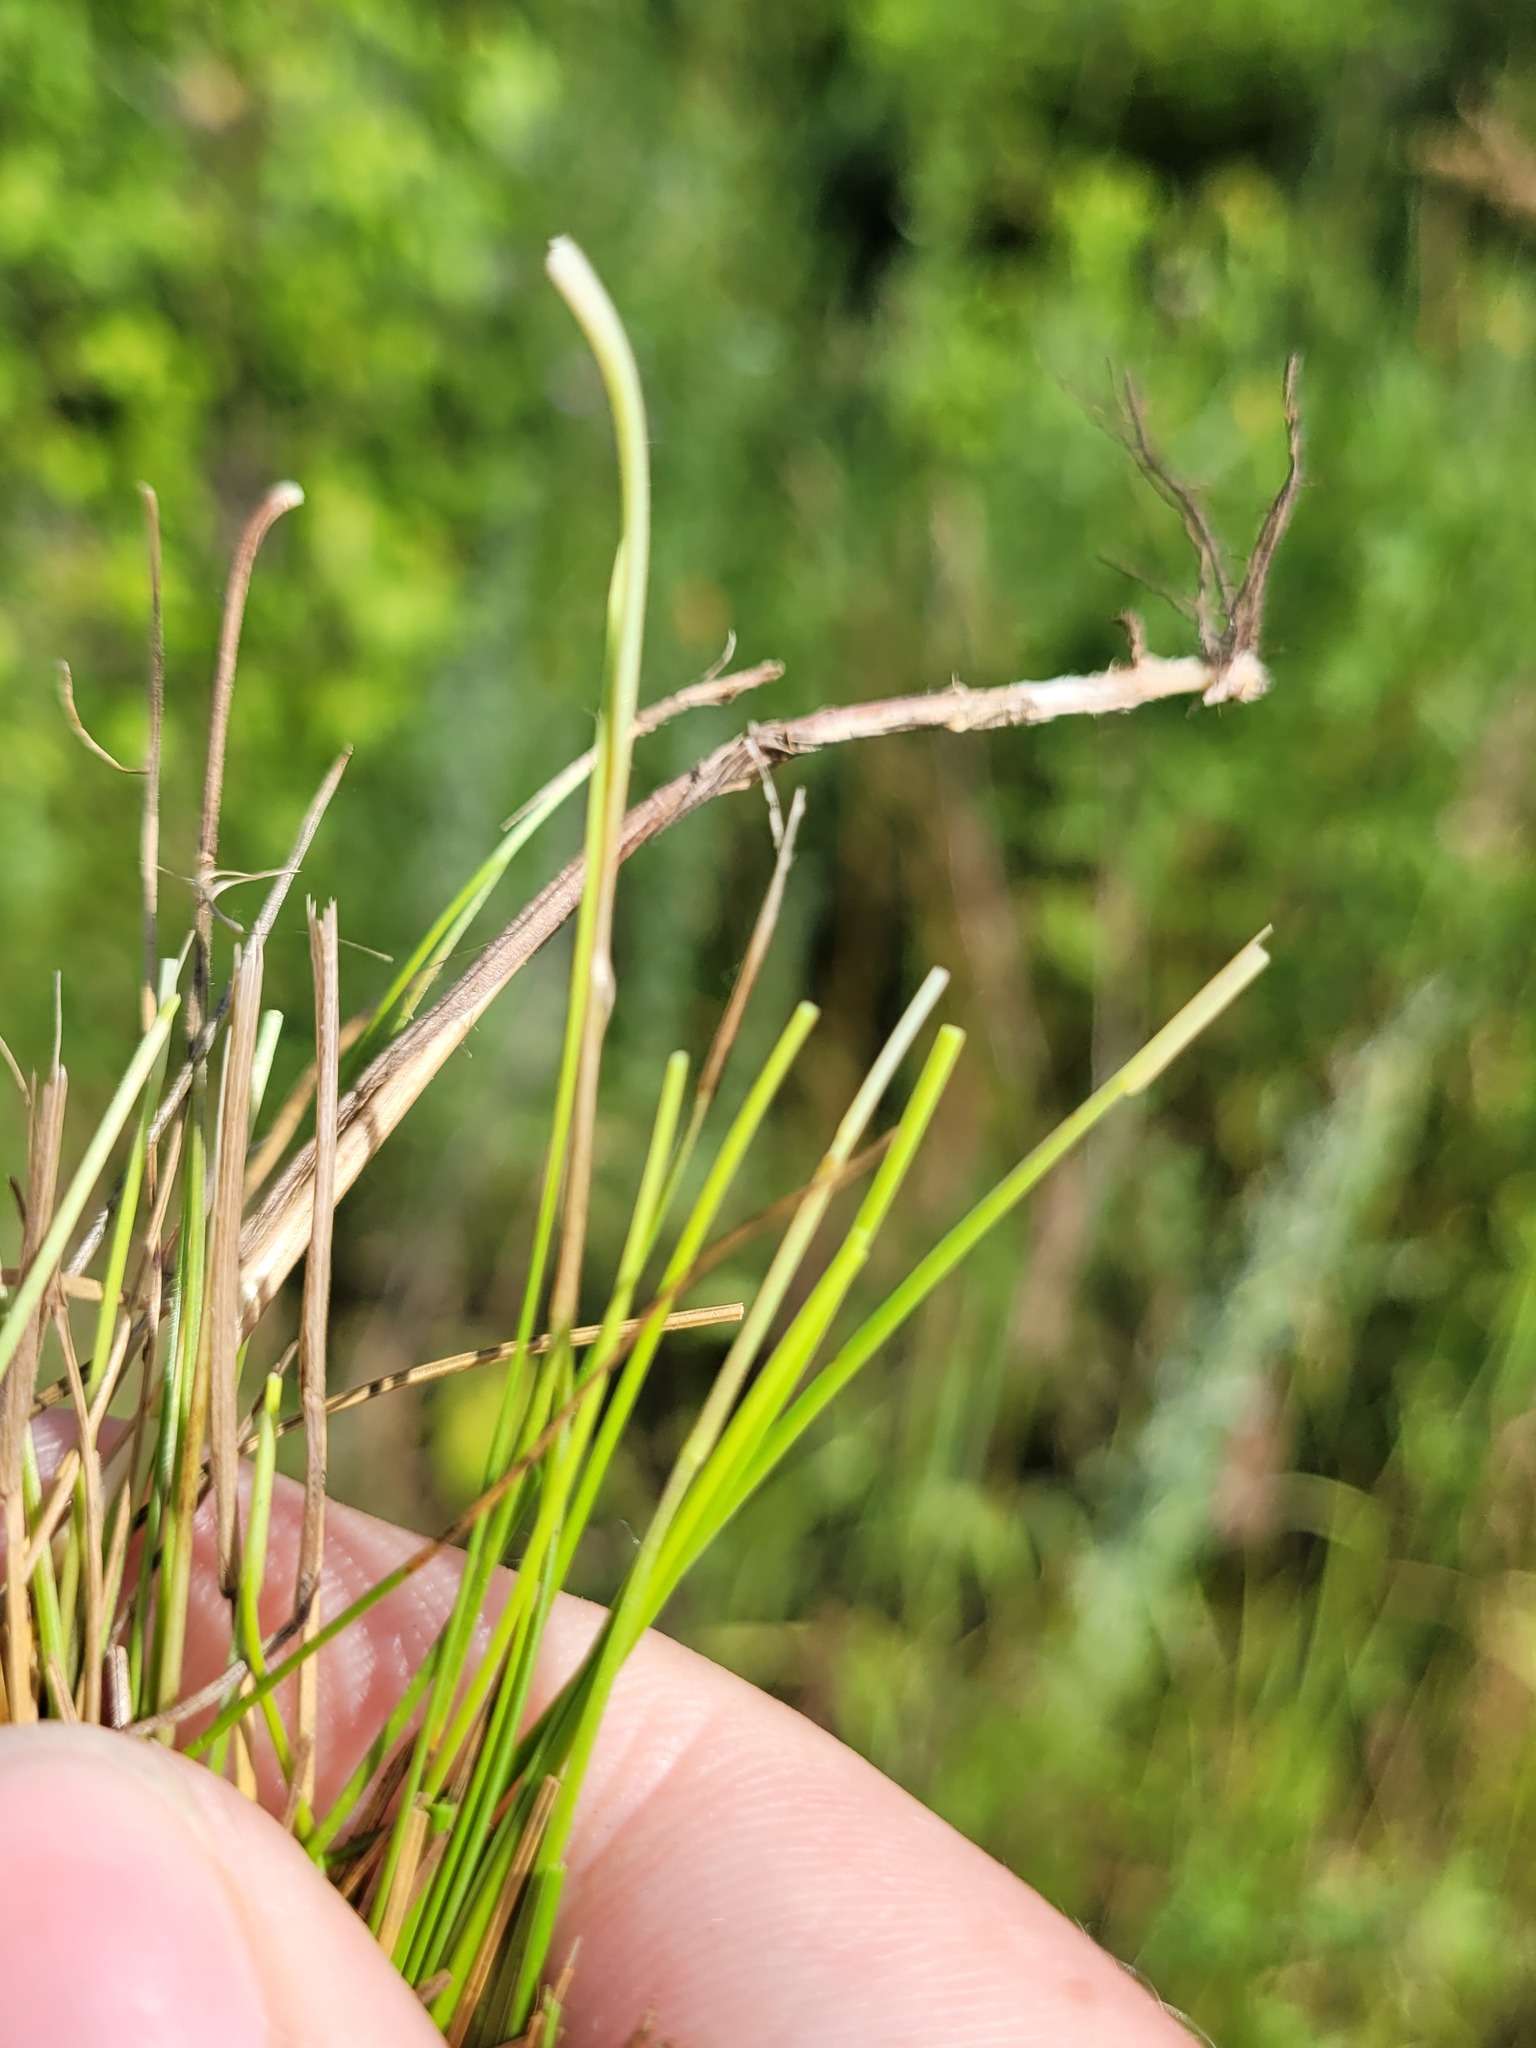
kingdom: Plantae
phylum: Tracheophyta
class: Liliopsida
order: Poales
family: Poaceae
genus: Festuca
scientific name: Festuca rubra
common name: Red fescue
